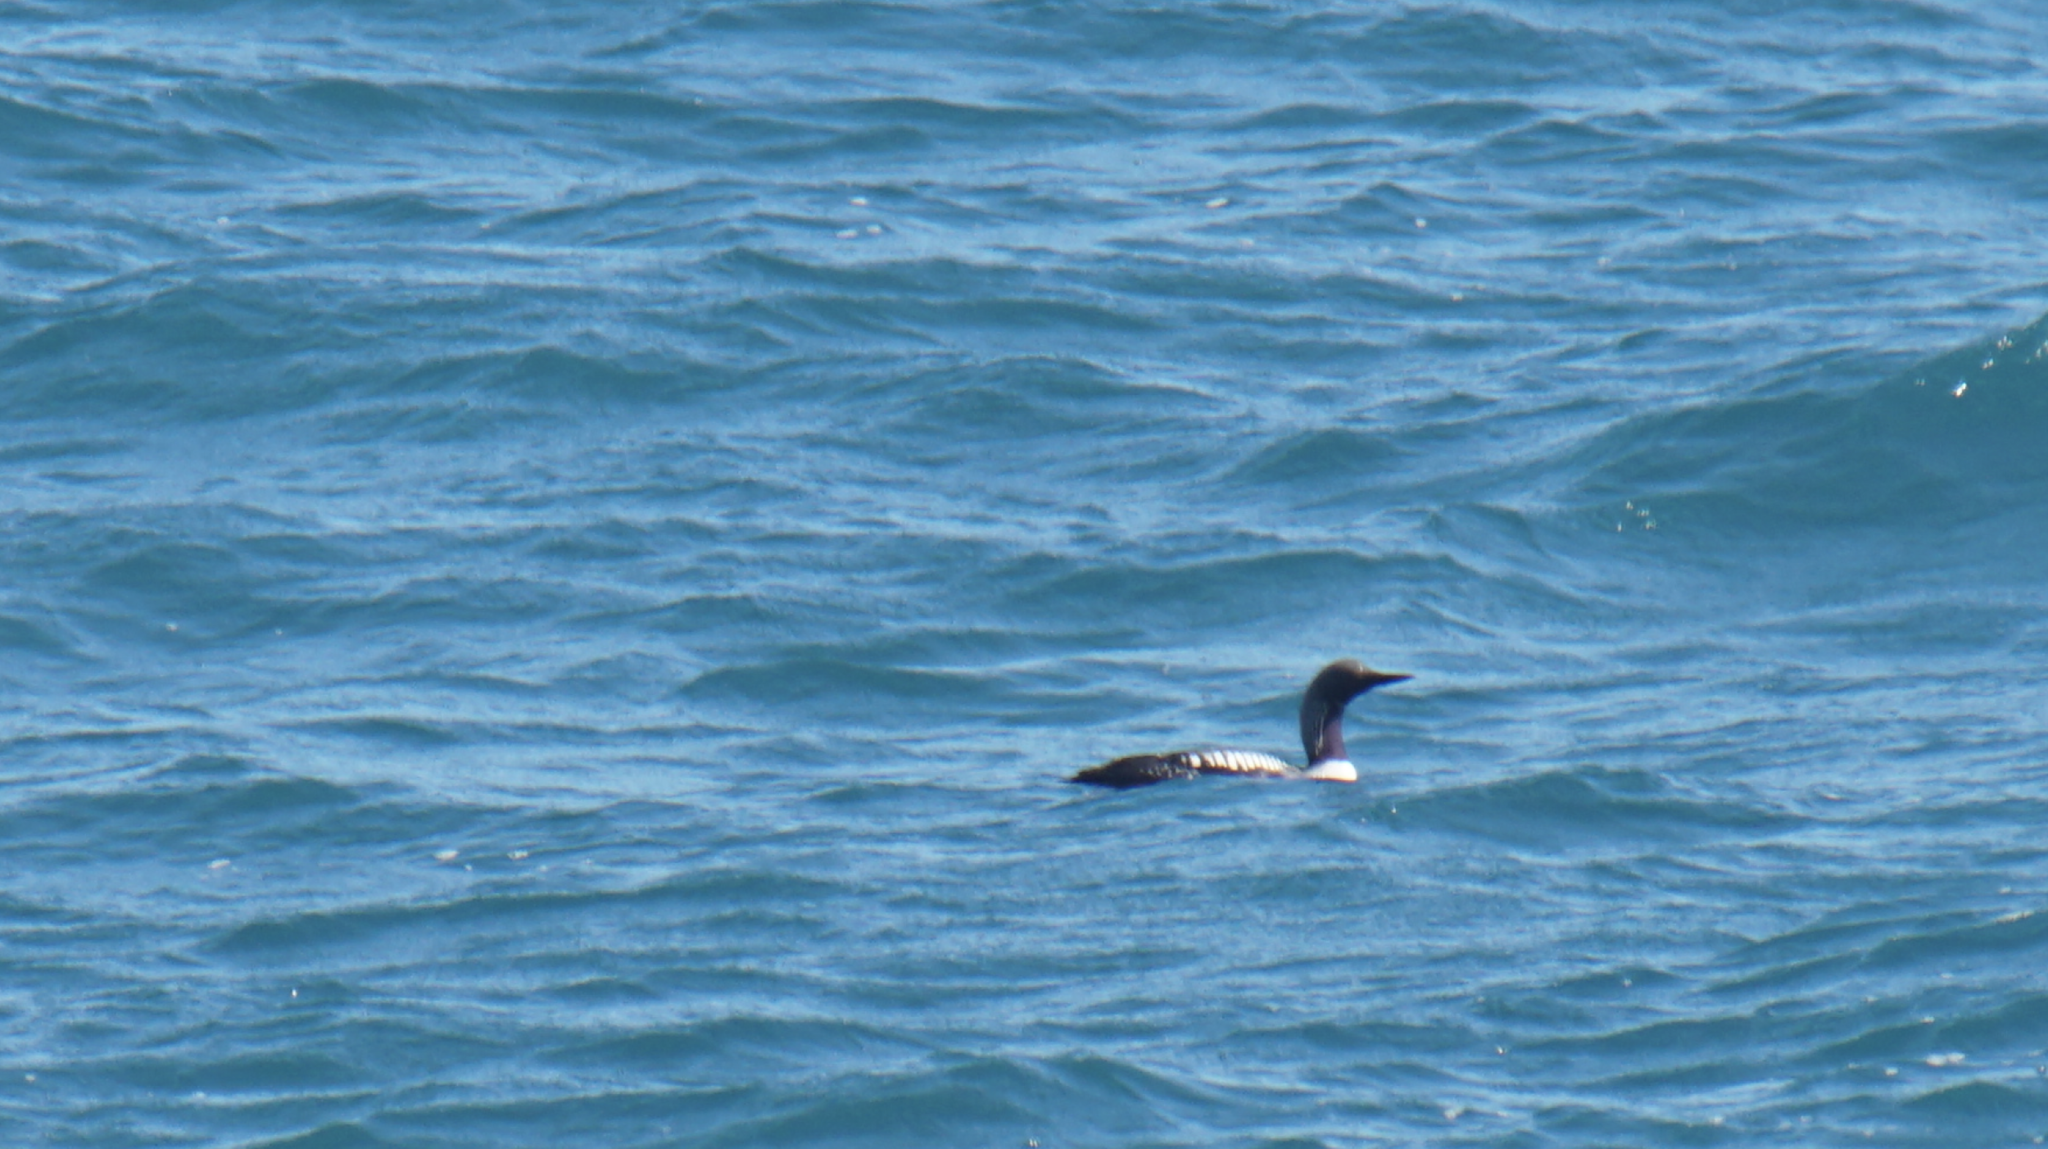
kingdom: Animalia
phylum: Chordata
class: Aves
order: Gaviiformes
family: Gaviidae
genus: Gavia
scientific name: Gavia pacifica
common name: Pacific loon
